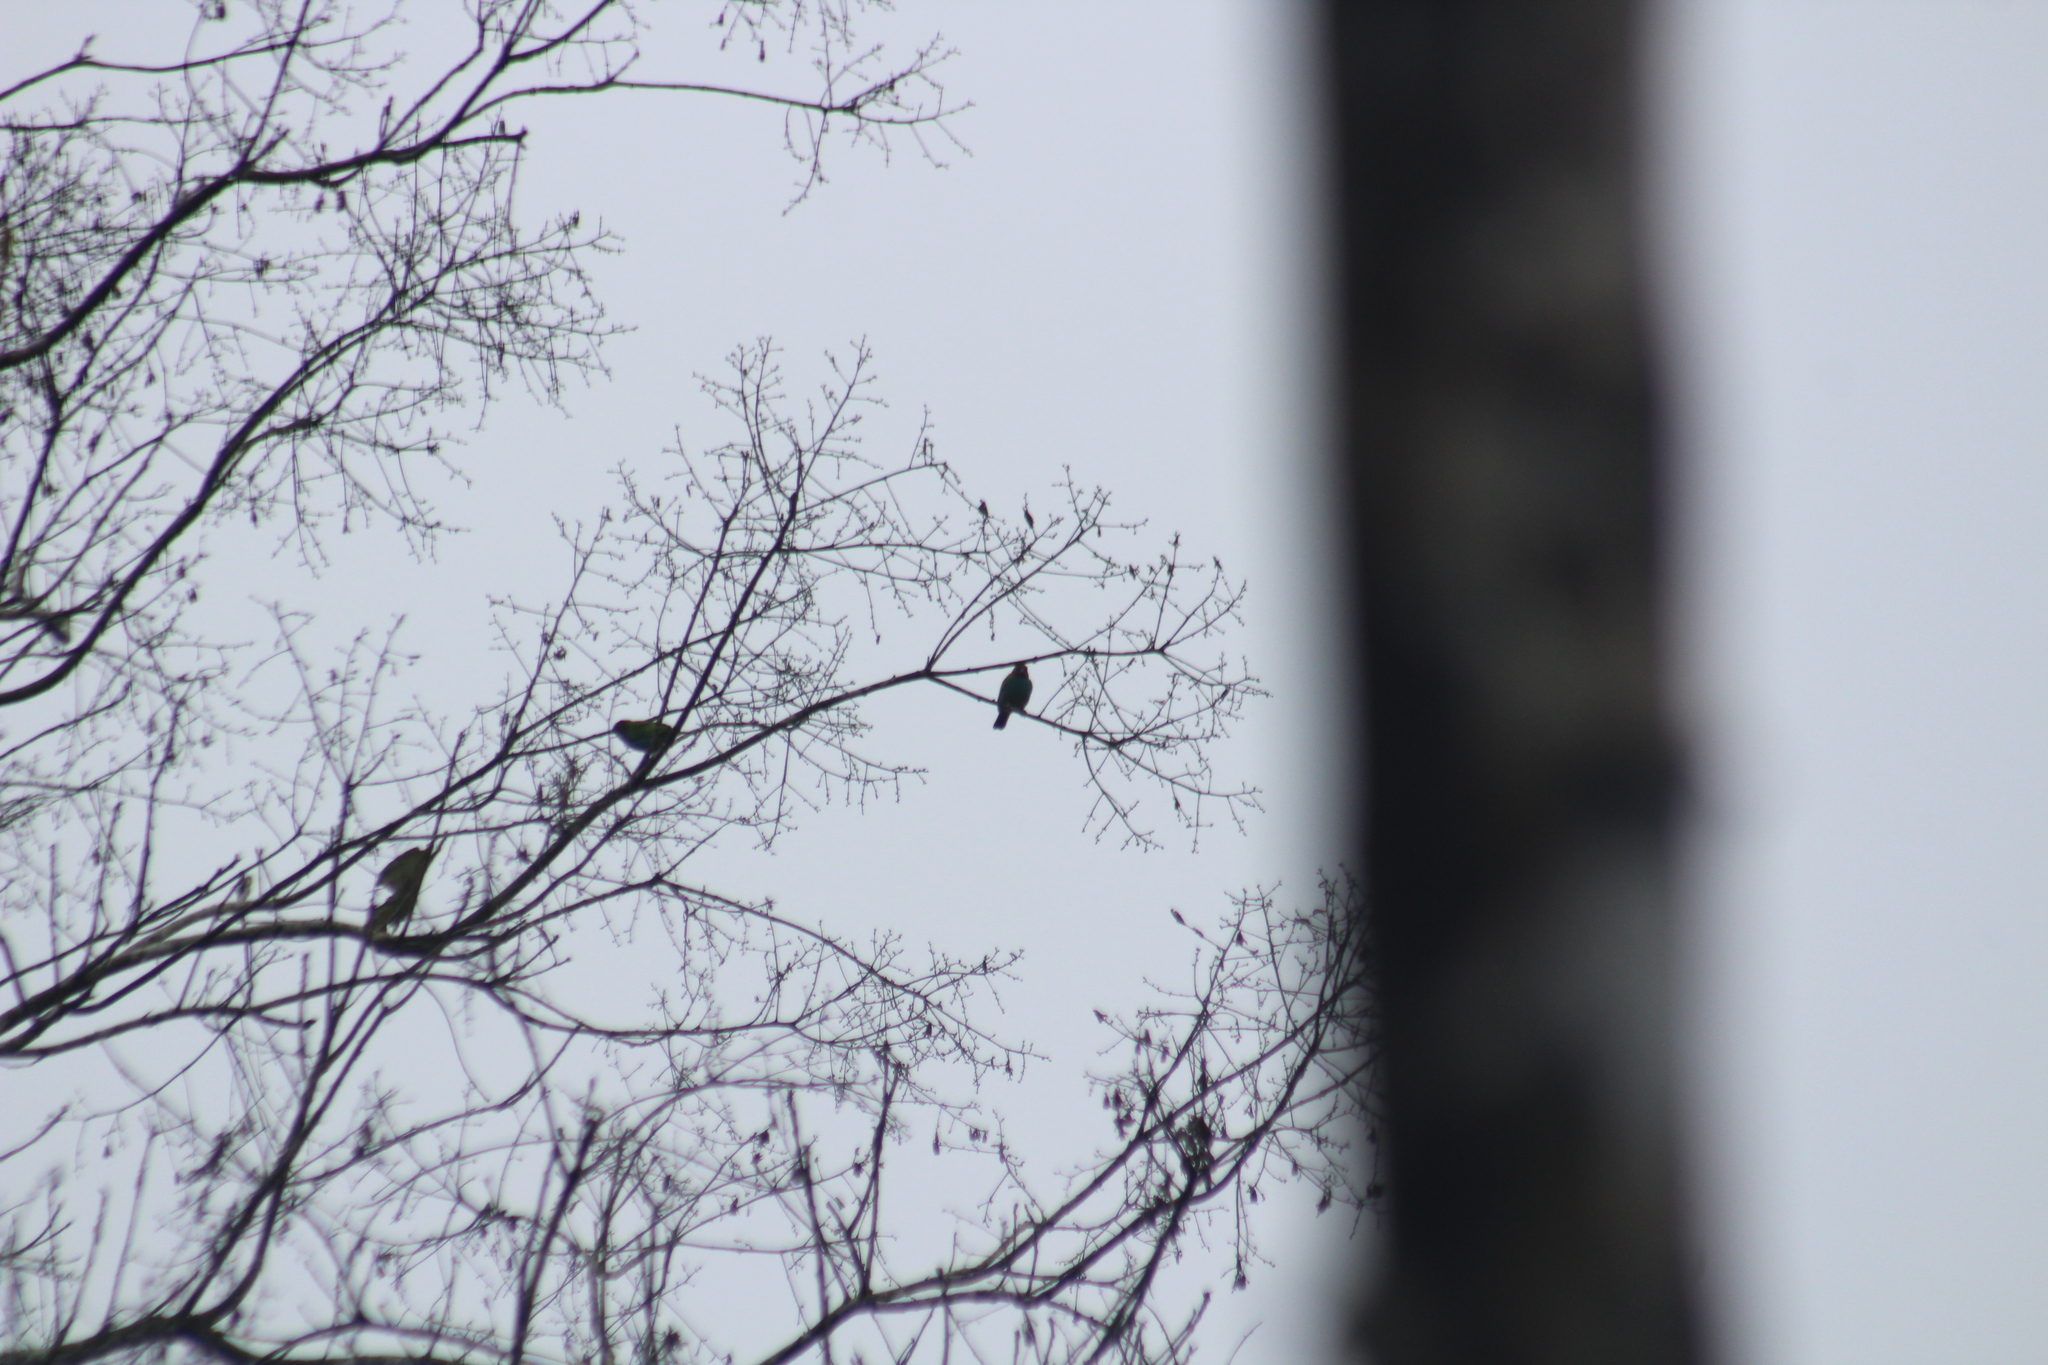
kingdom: Animalia
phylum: Chordata
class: Aves
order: Passeriformes
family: Thraupidae
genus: Tangara
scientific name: Tangara gyrola
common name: Bay-headed tanager
